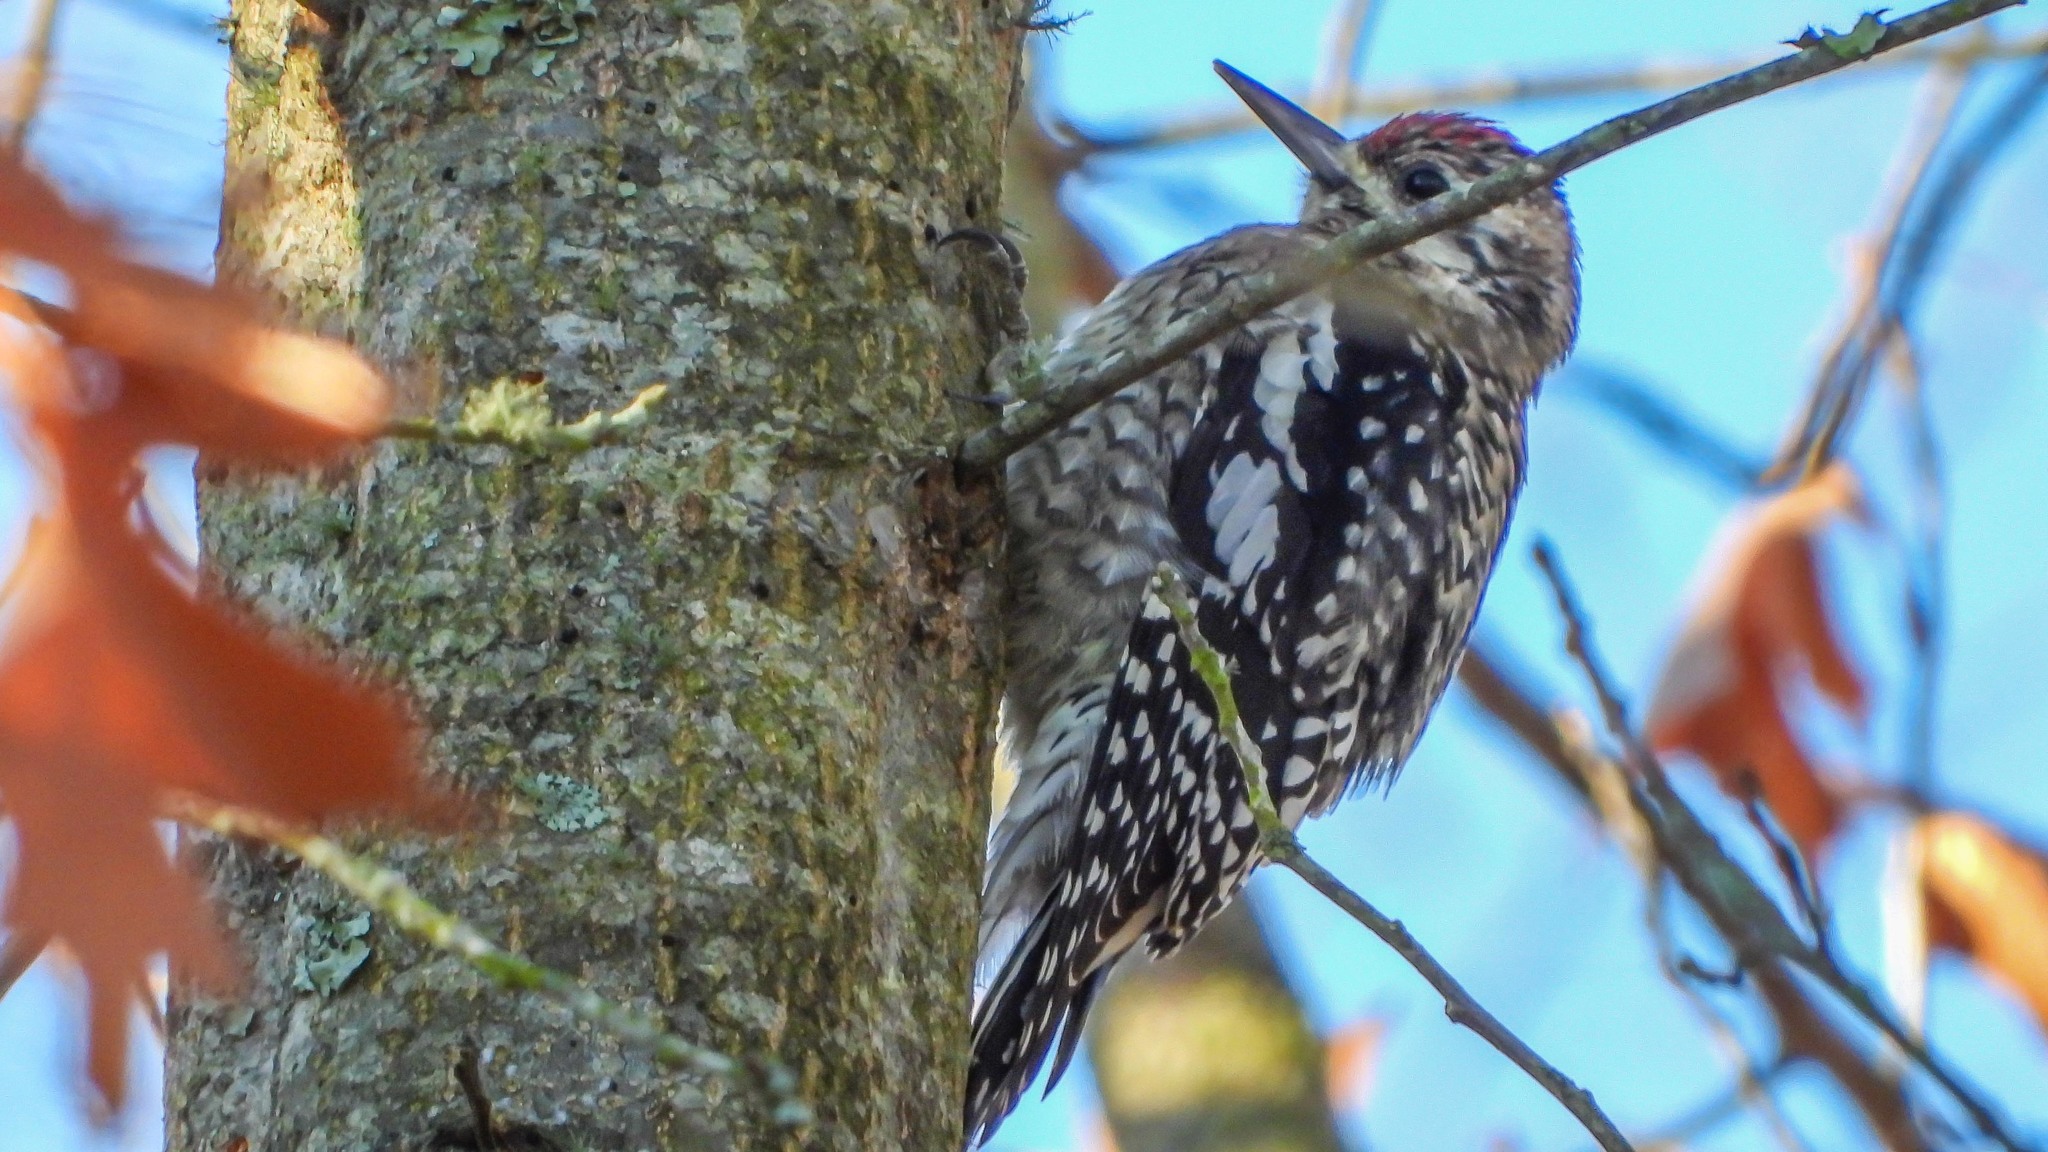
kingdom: Animalia
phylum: Chordata
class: Aves
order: Piciformes
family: Picidae
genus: Sphyrapicus
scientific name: Sphyrapicus varius
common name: Yellow-bellied sapsucker
